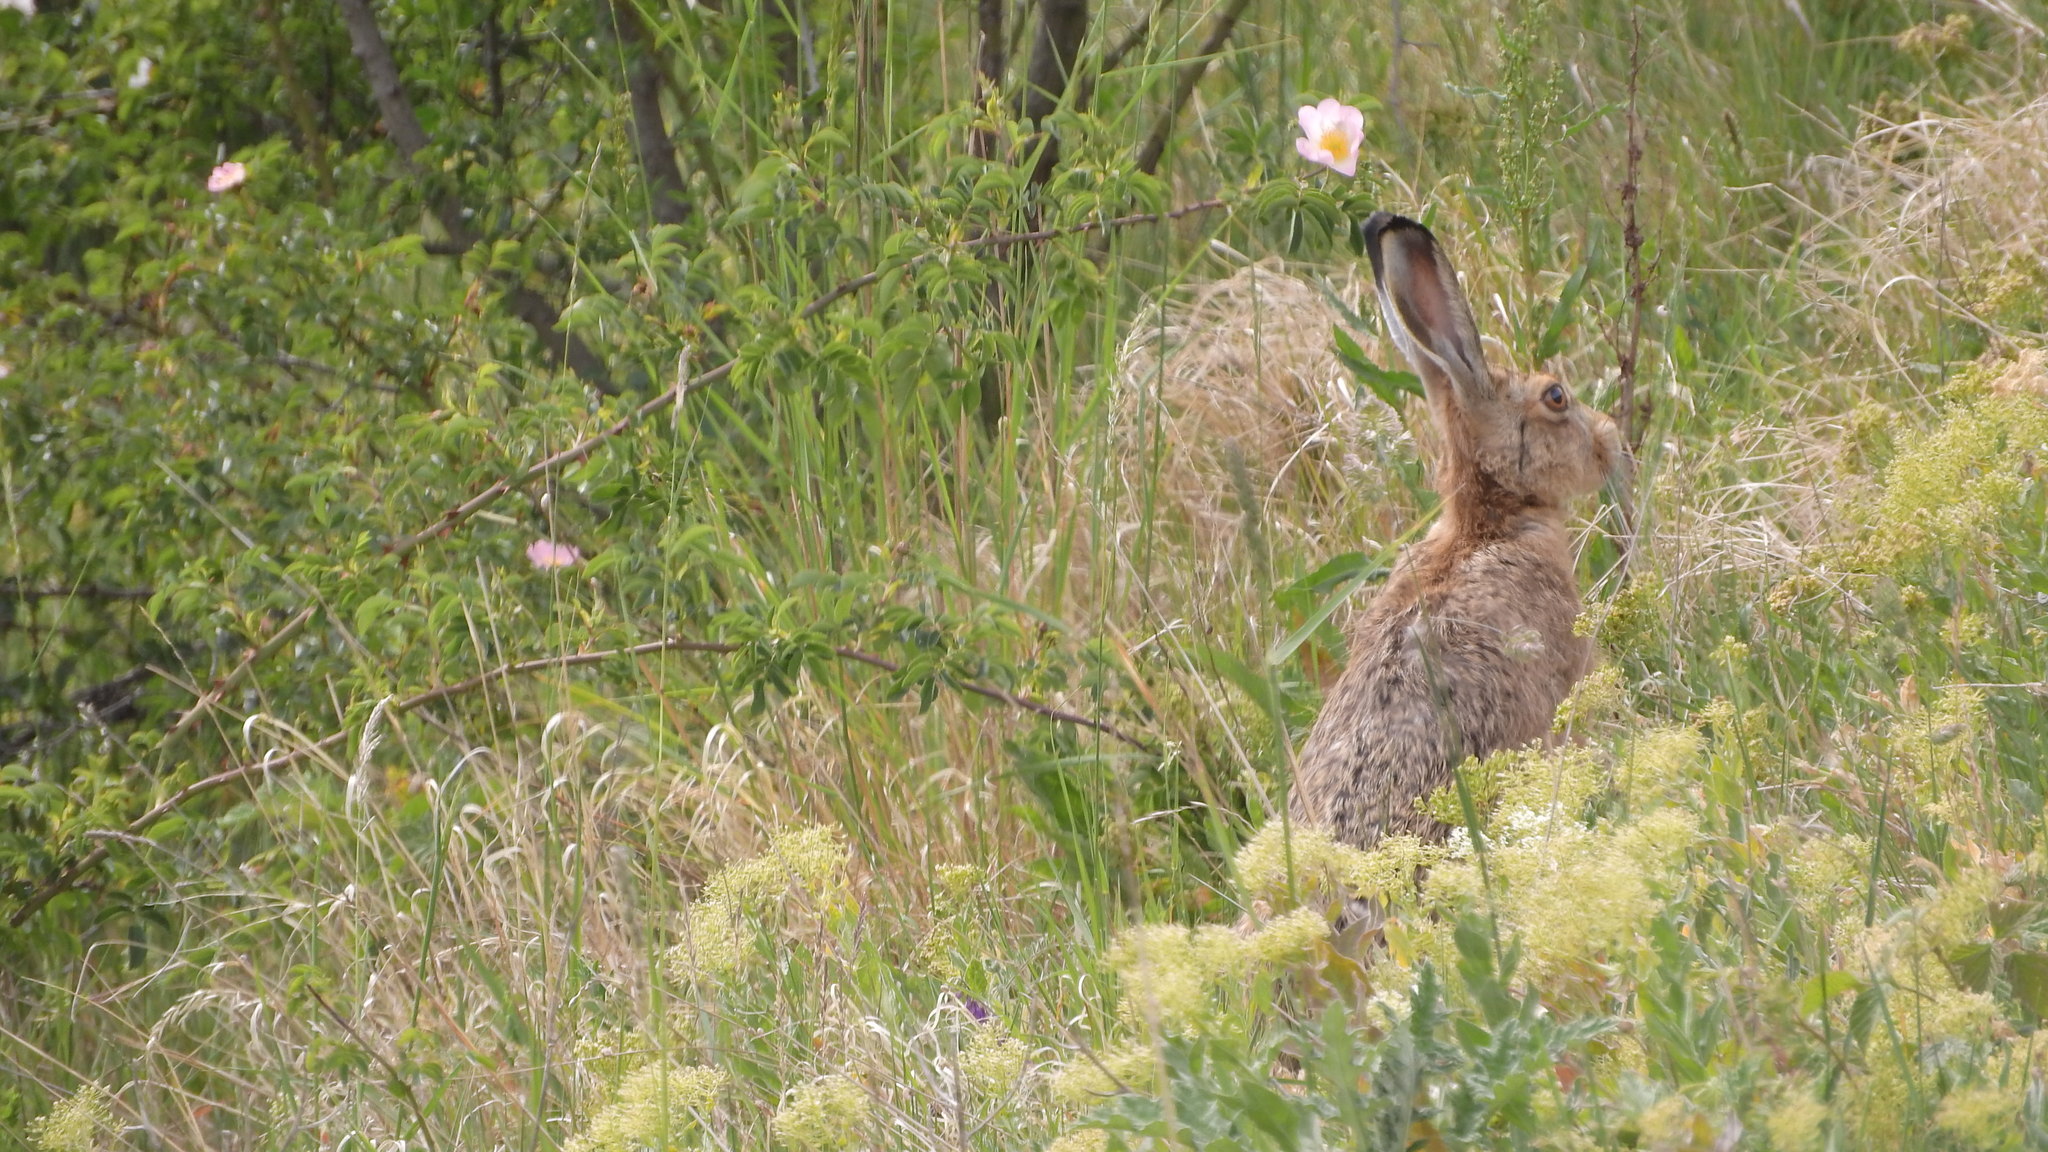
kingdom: Animalia
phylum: Chordata
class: Mammalia
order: Lagomorpha
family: Leporidae
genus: Lepus
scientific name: Lepus europaeus
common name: European hare
